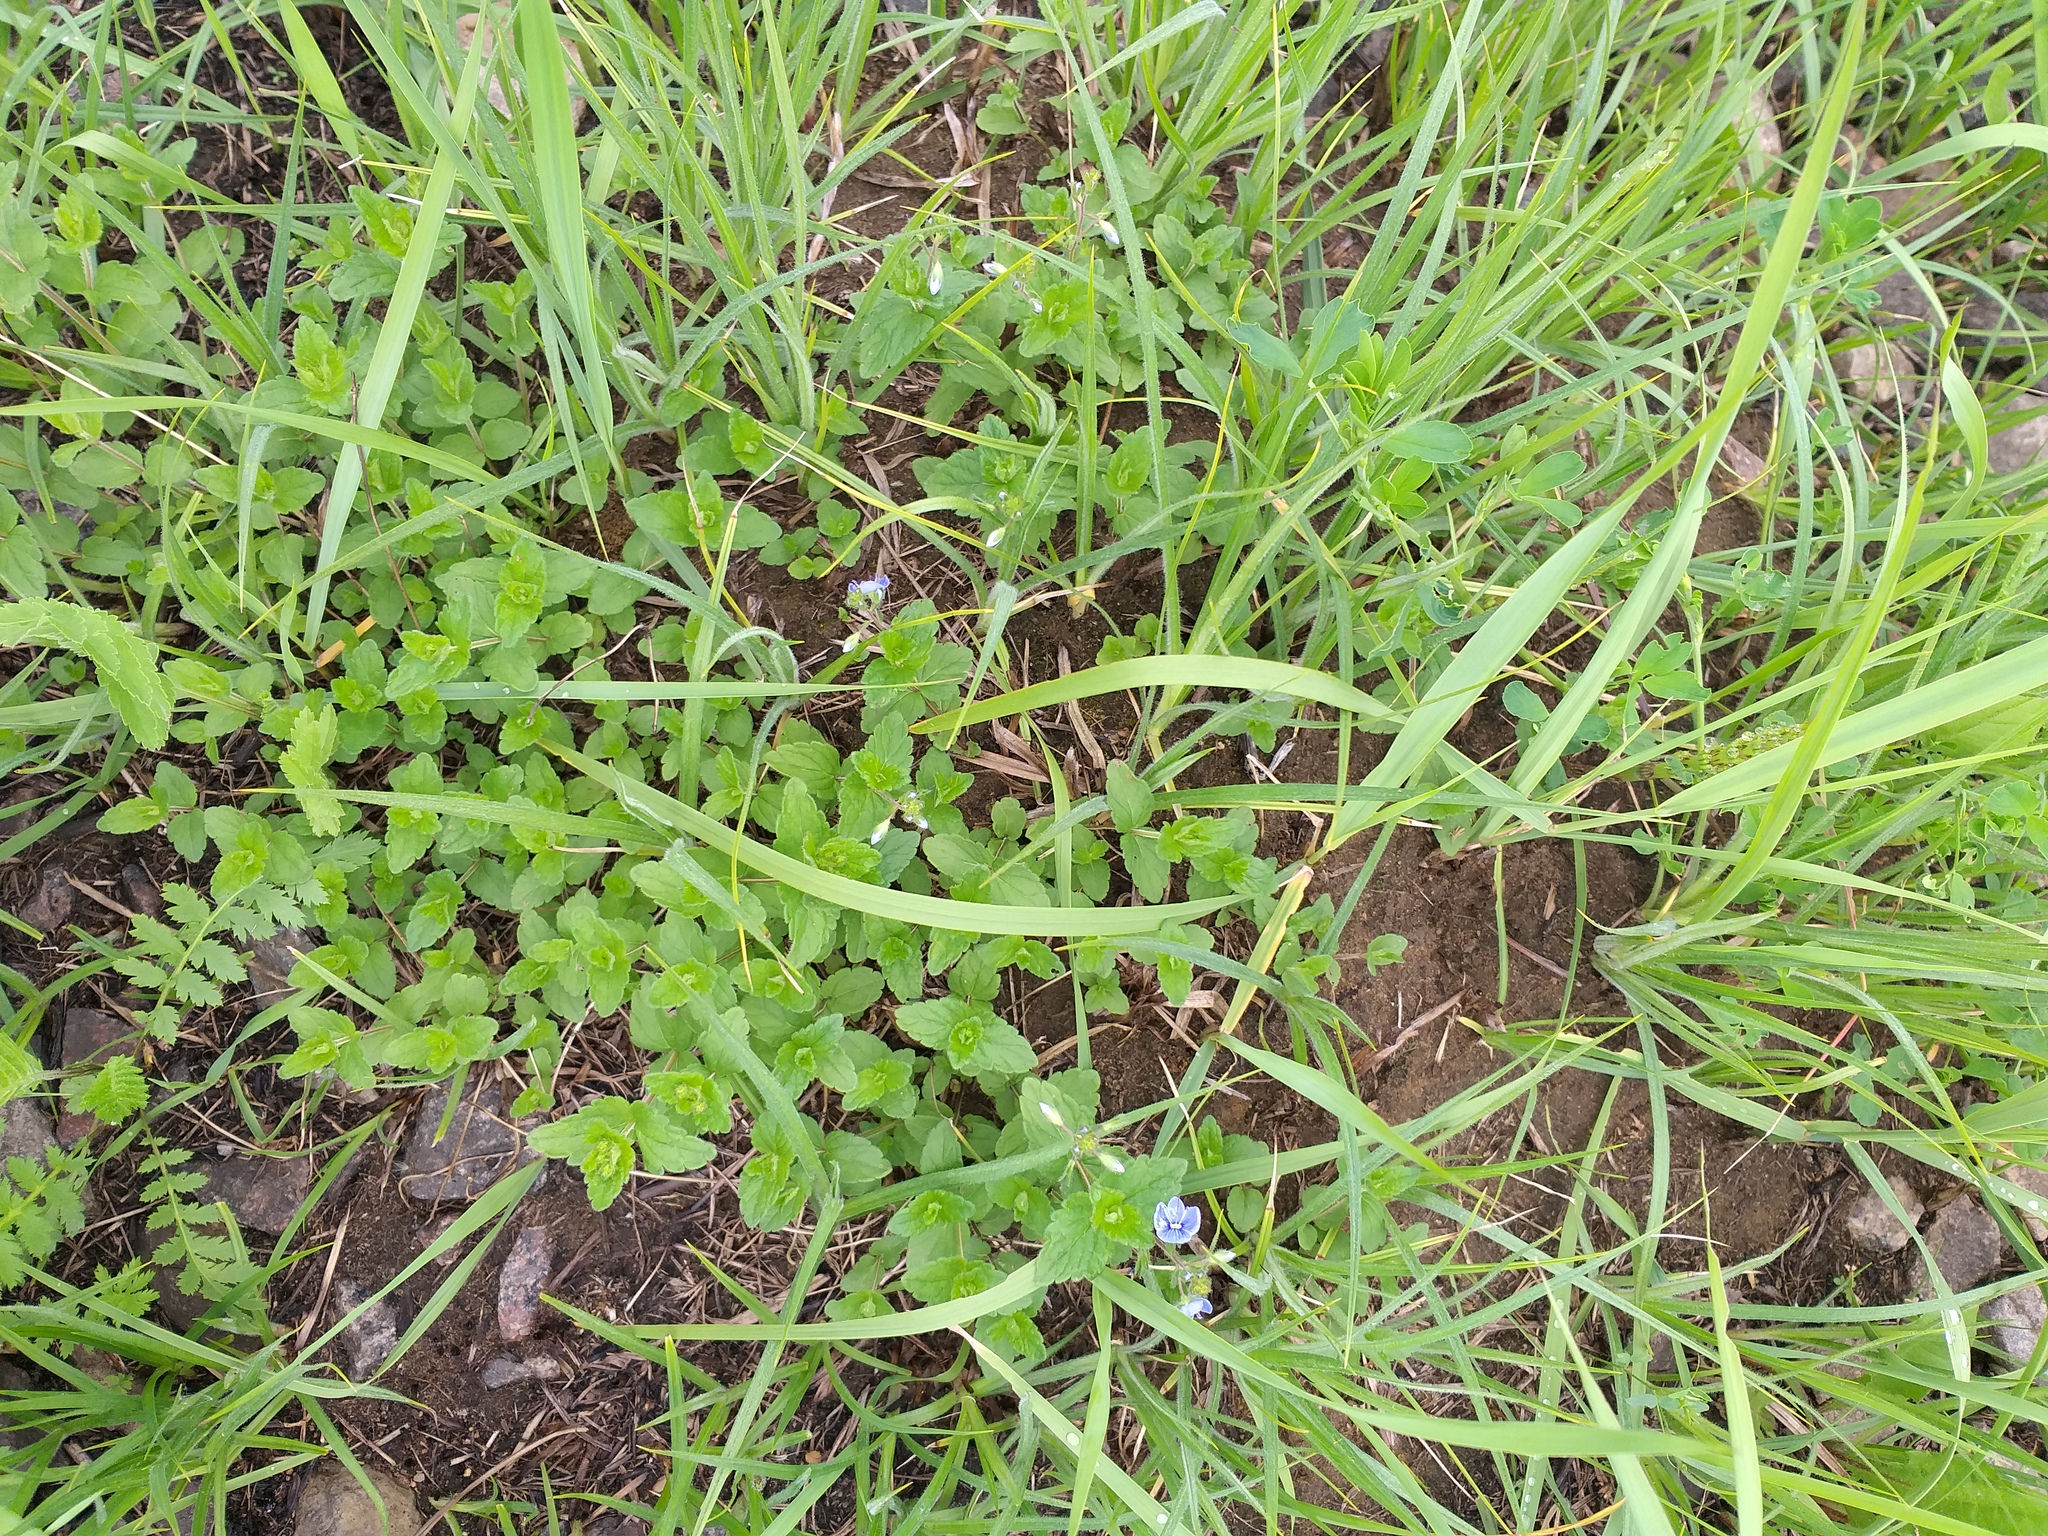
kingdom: Plantae
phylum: Tracheophyta
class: Magnoliopsida
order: Lamiales
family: Plantaginaceae
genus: Veronica
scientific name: Veronica chamaedrys
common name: Germander speedwell
